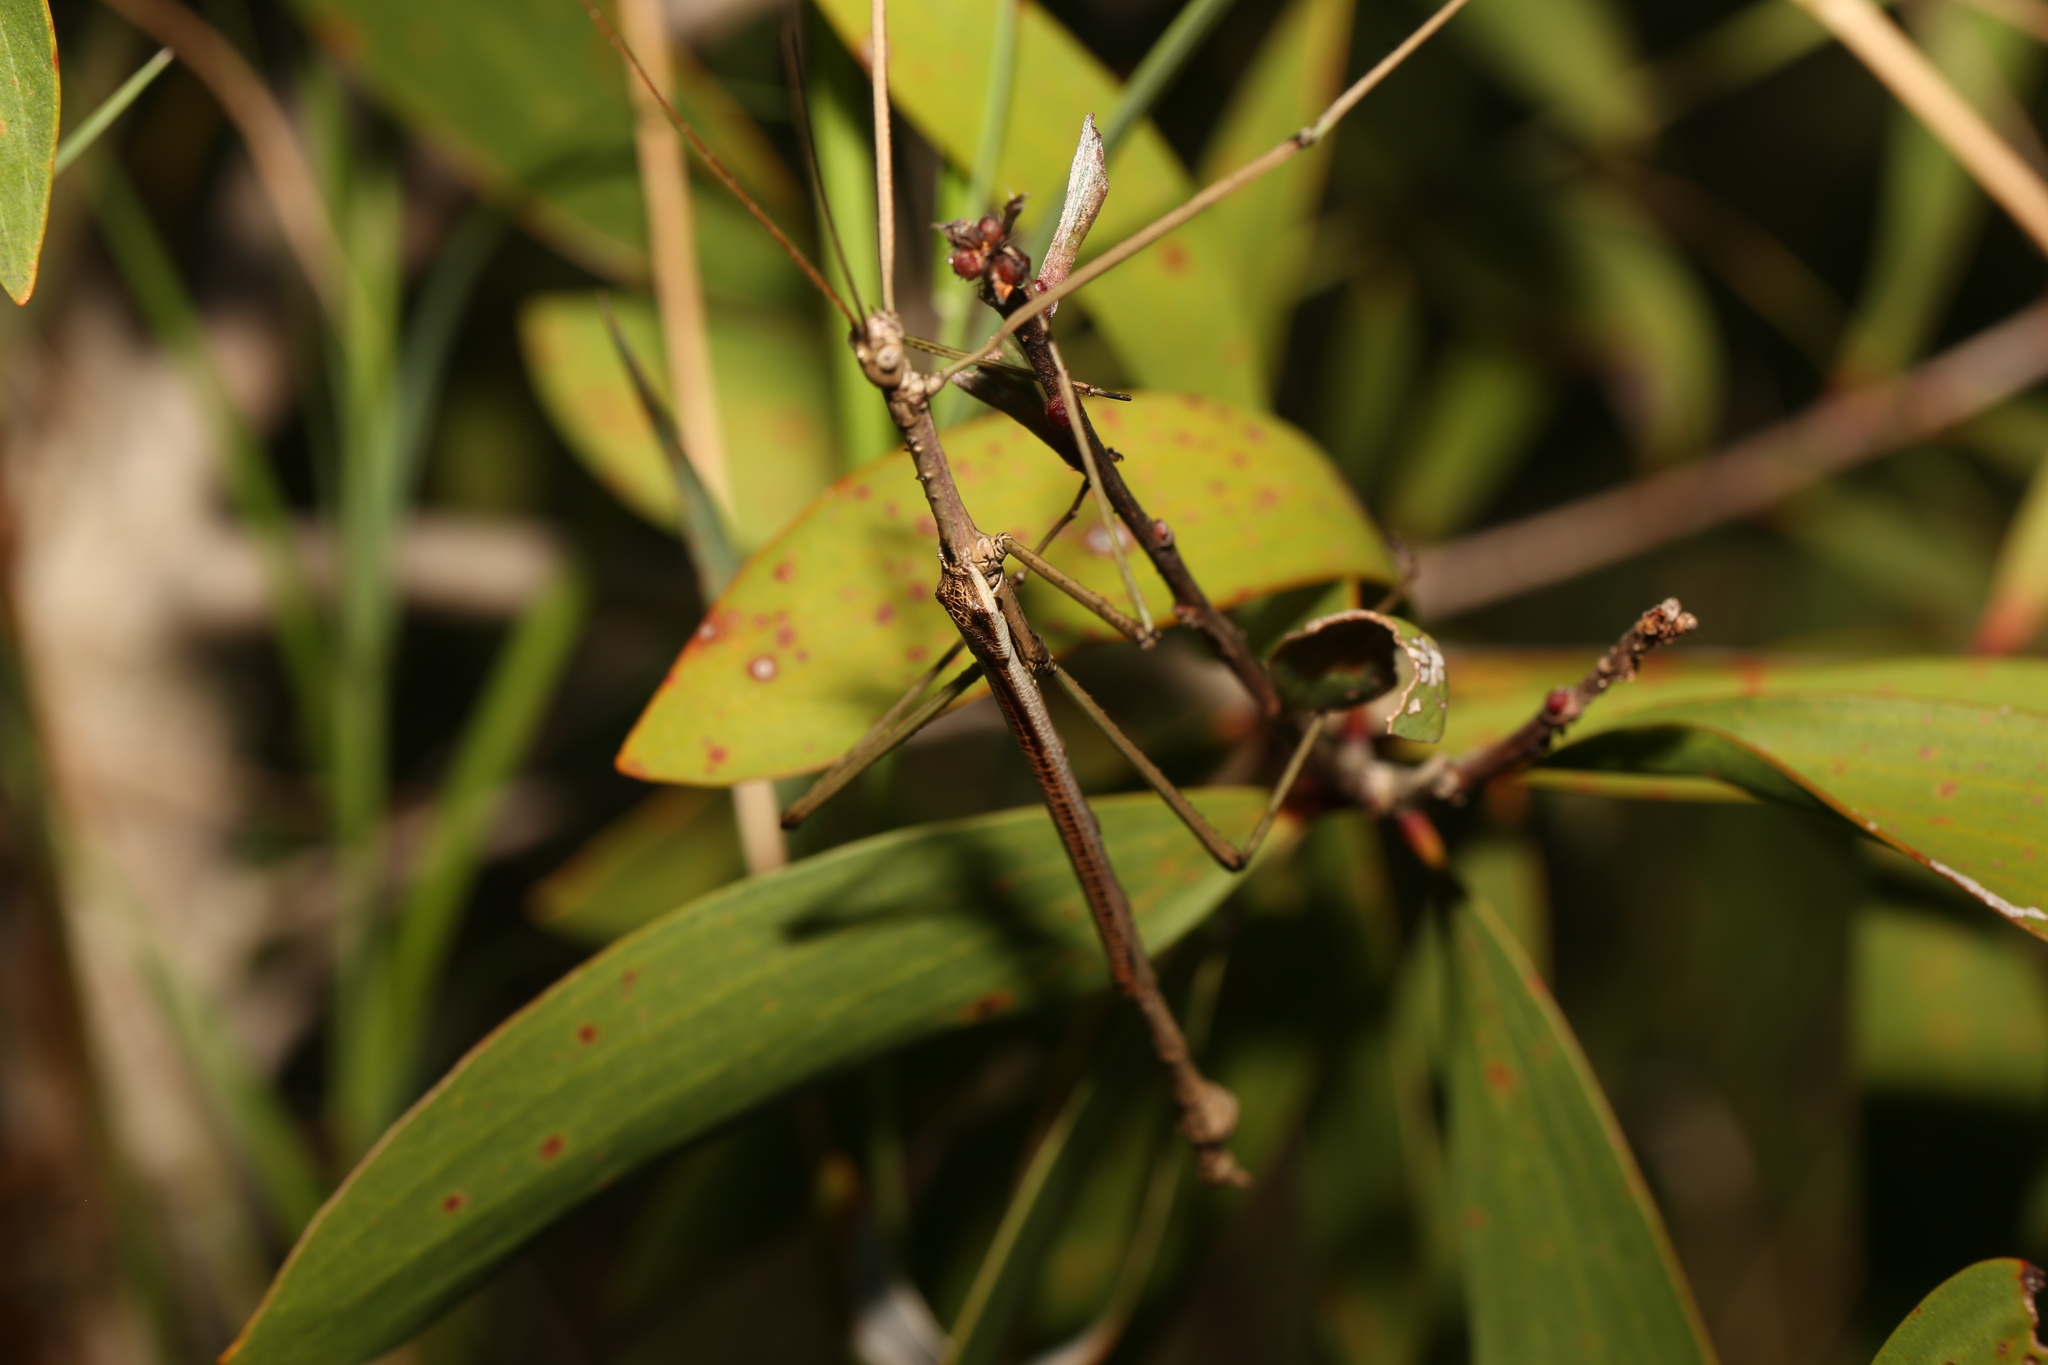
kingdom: Animalia
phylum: Arthropoda
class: Insecta
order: Phasmida
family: Phasmatidae
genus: Anchiale
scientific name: Anchiale austrotessulata
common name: Tessellated stick-insect
